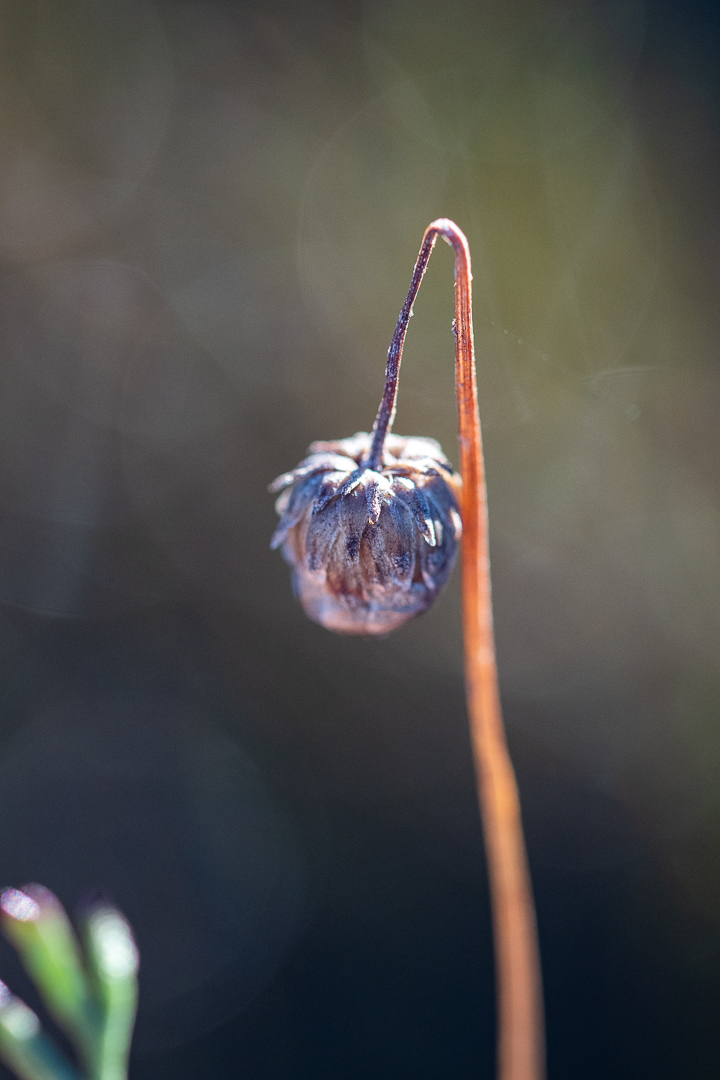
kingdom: Plantae
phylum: Tracheophyta
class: Magnoliopsida
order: Asterales
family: Asteraceae
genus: Ursinia
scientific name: Ursinia paleacea
